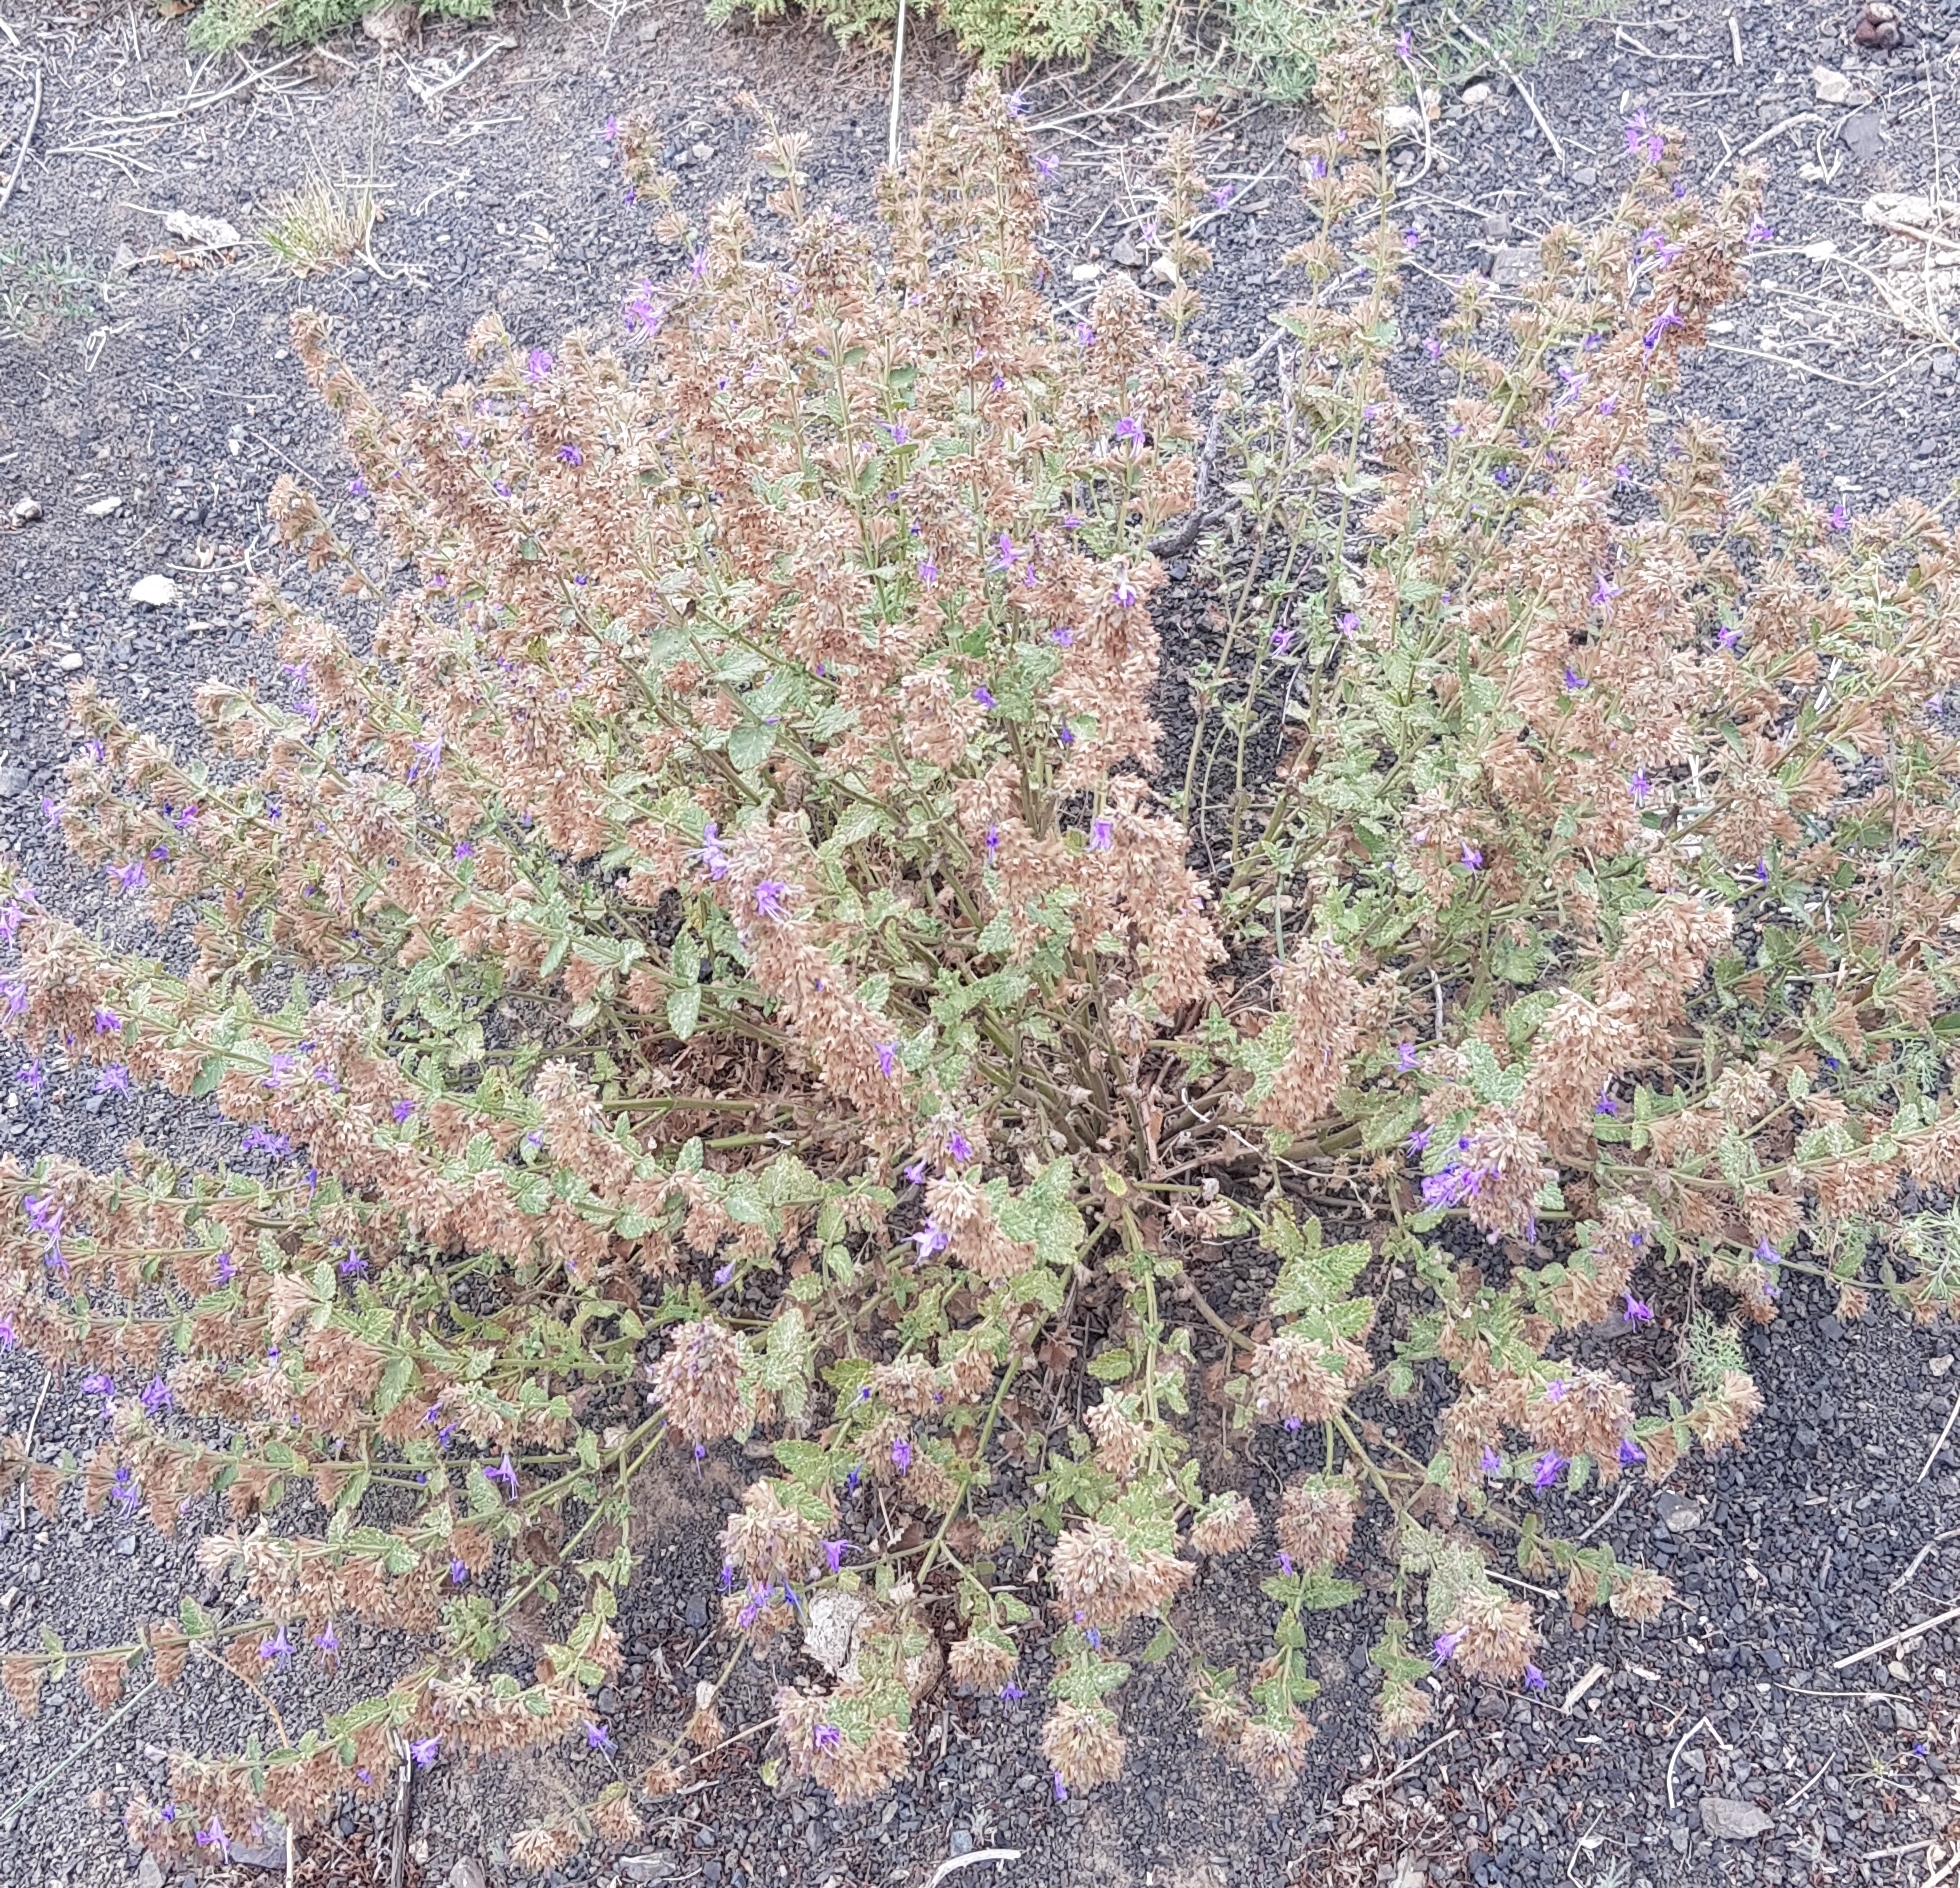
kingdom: Plantae
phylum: Tracheophyta
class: Magnoliopsida
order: Lamiales
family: Lamiaceae
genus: Nepeta
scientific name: Nepeta lophanthus
